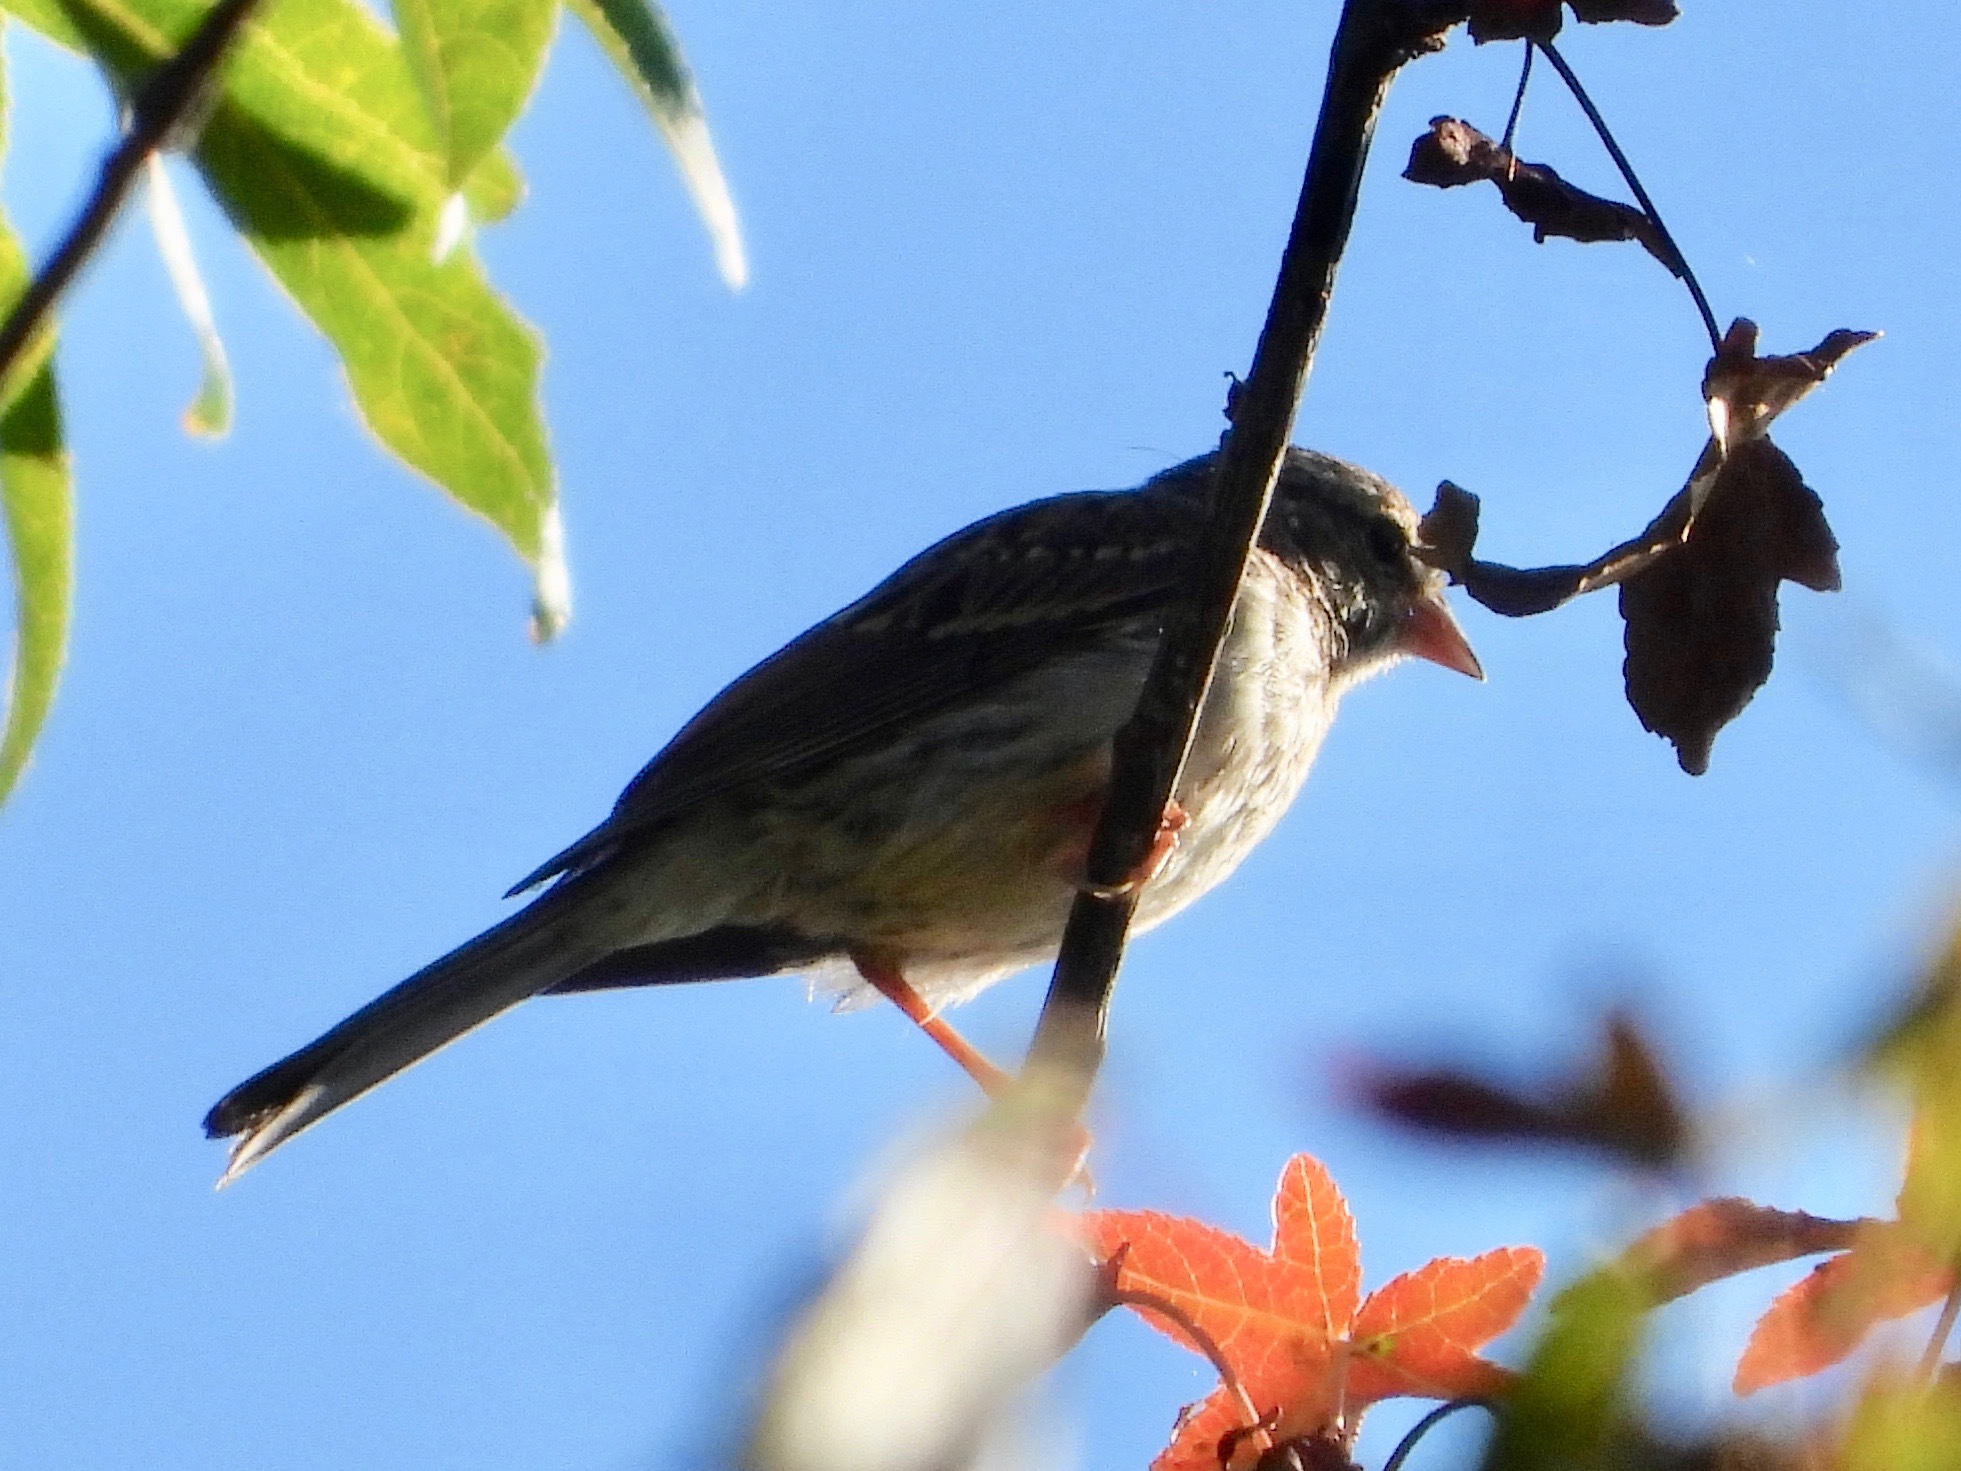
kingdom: Animalia
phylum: Chordata
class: Aves
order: Passeriformes
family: Passerellidae
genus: Spizella
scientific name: Spizella passerina
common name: Chipping sparrow
